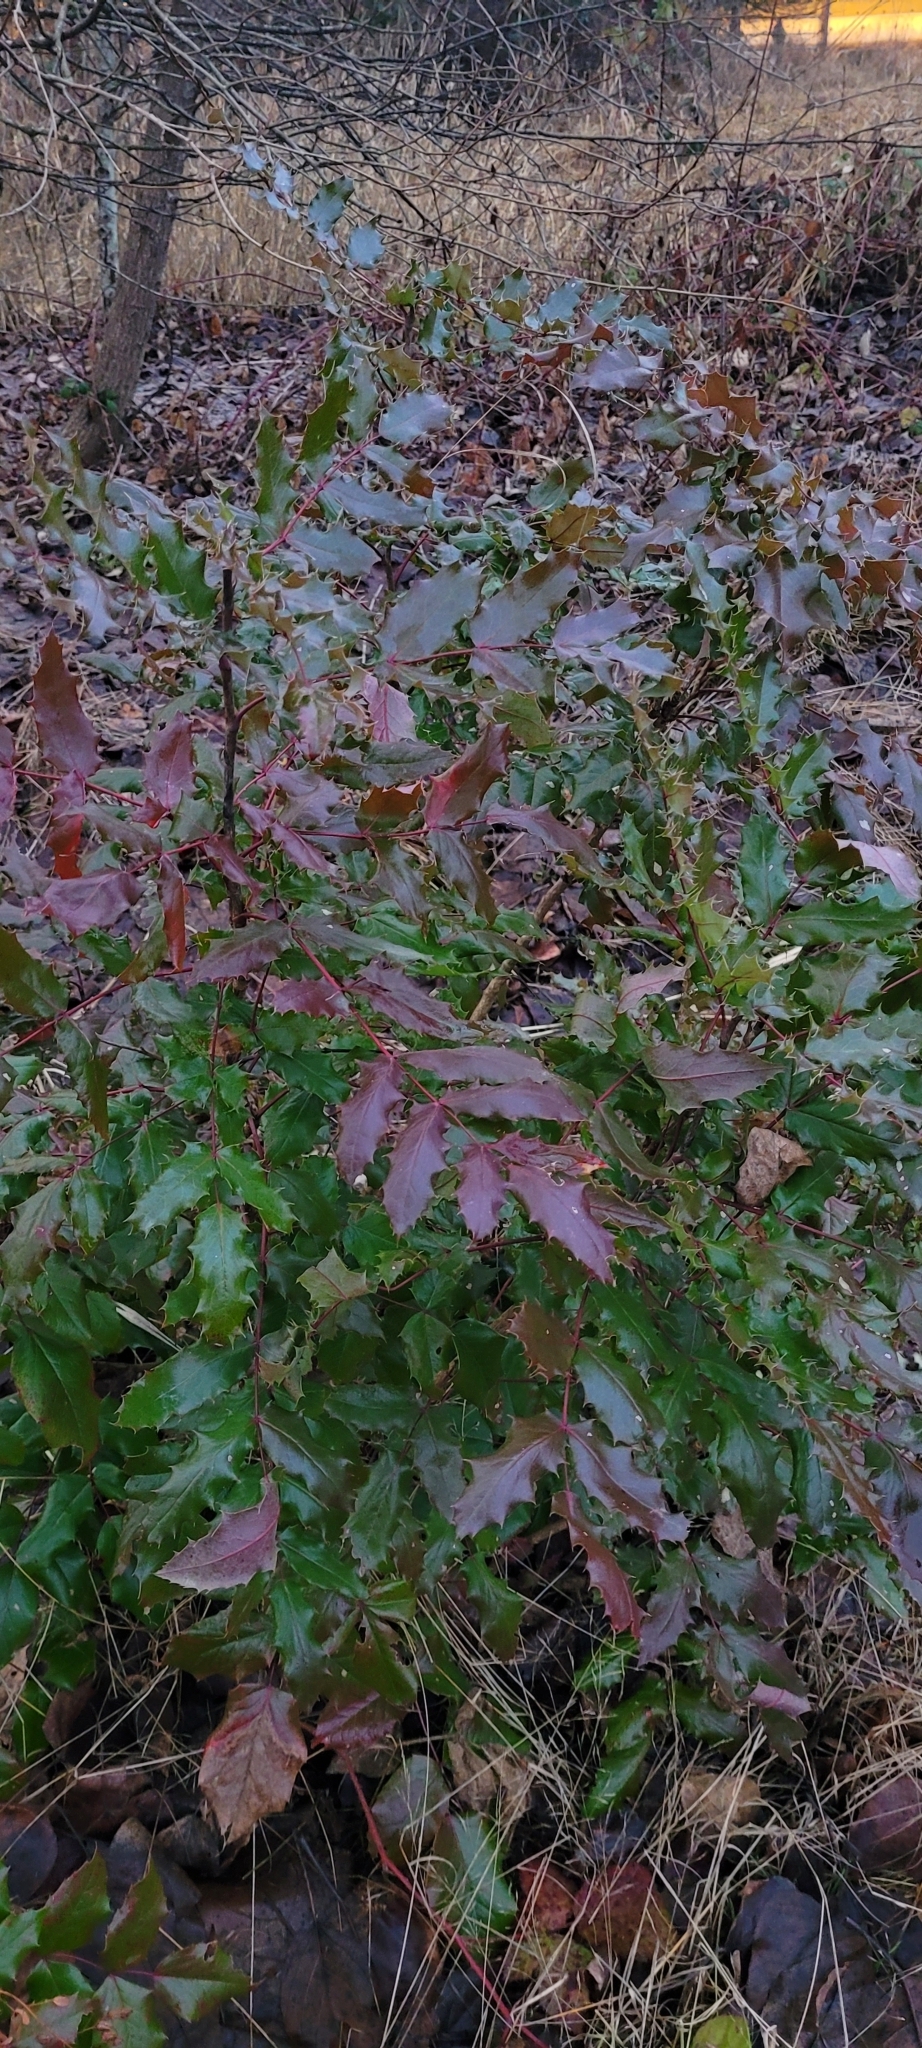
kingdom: Plantae
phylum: Tracheophyta
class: Magnoliopsida
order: Ranunculales
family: Berberidaceae
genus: Mahonia
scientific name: Mahonia aquifolium
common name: Oregon-grape
